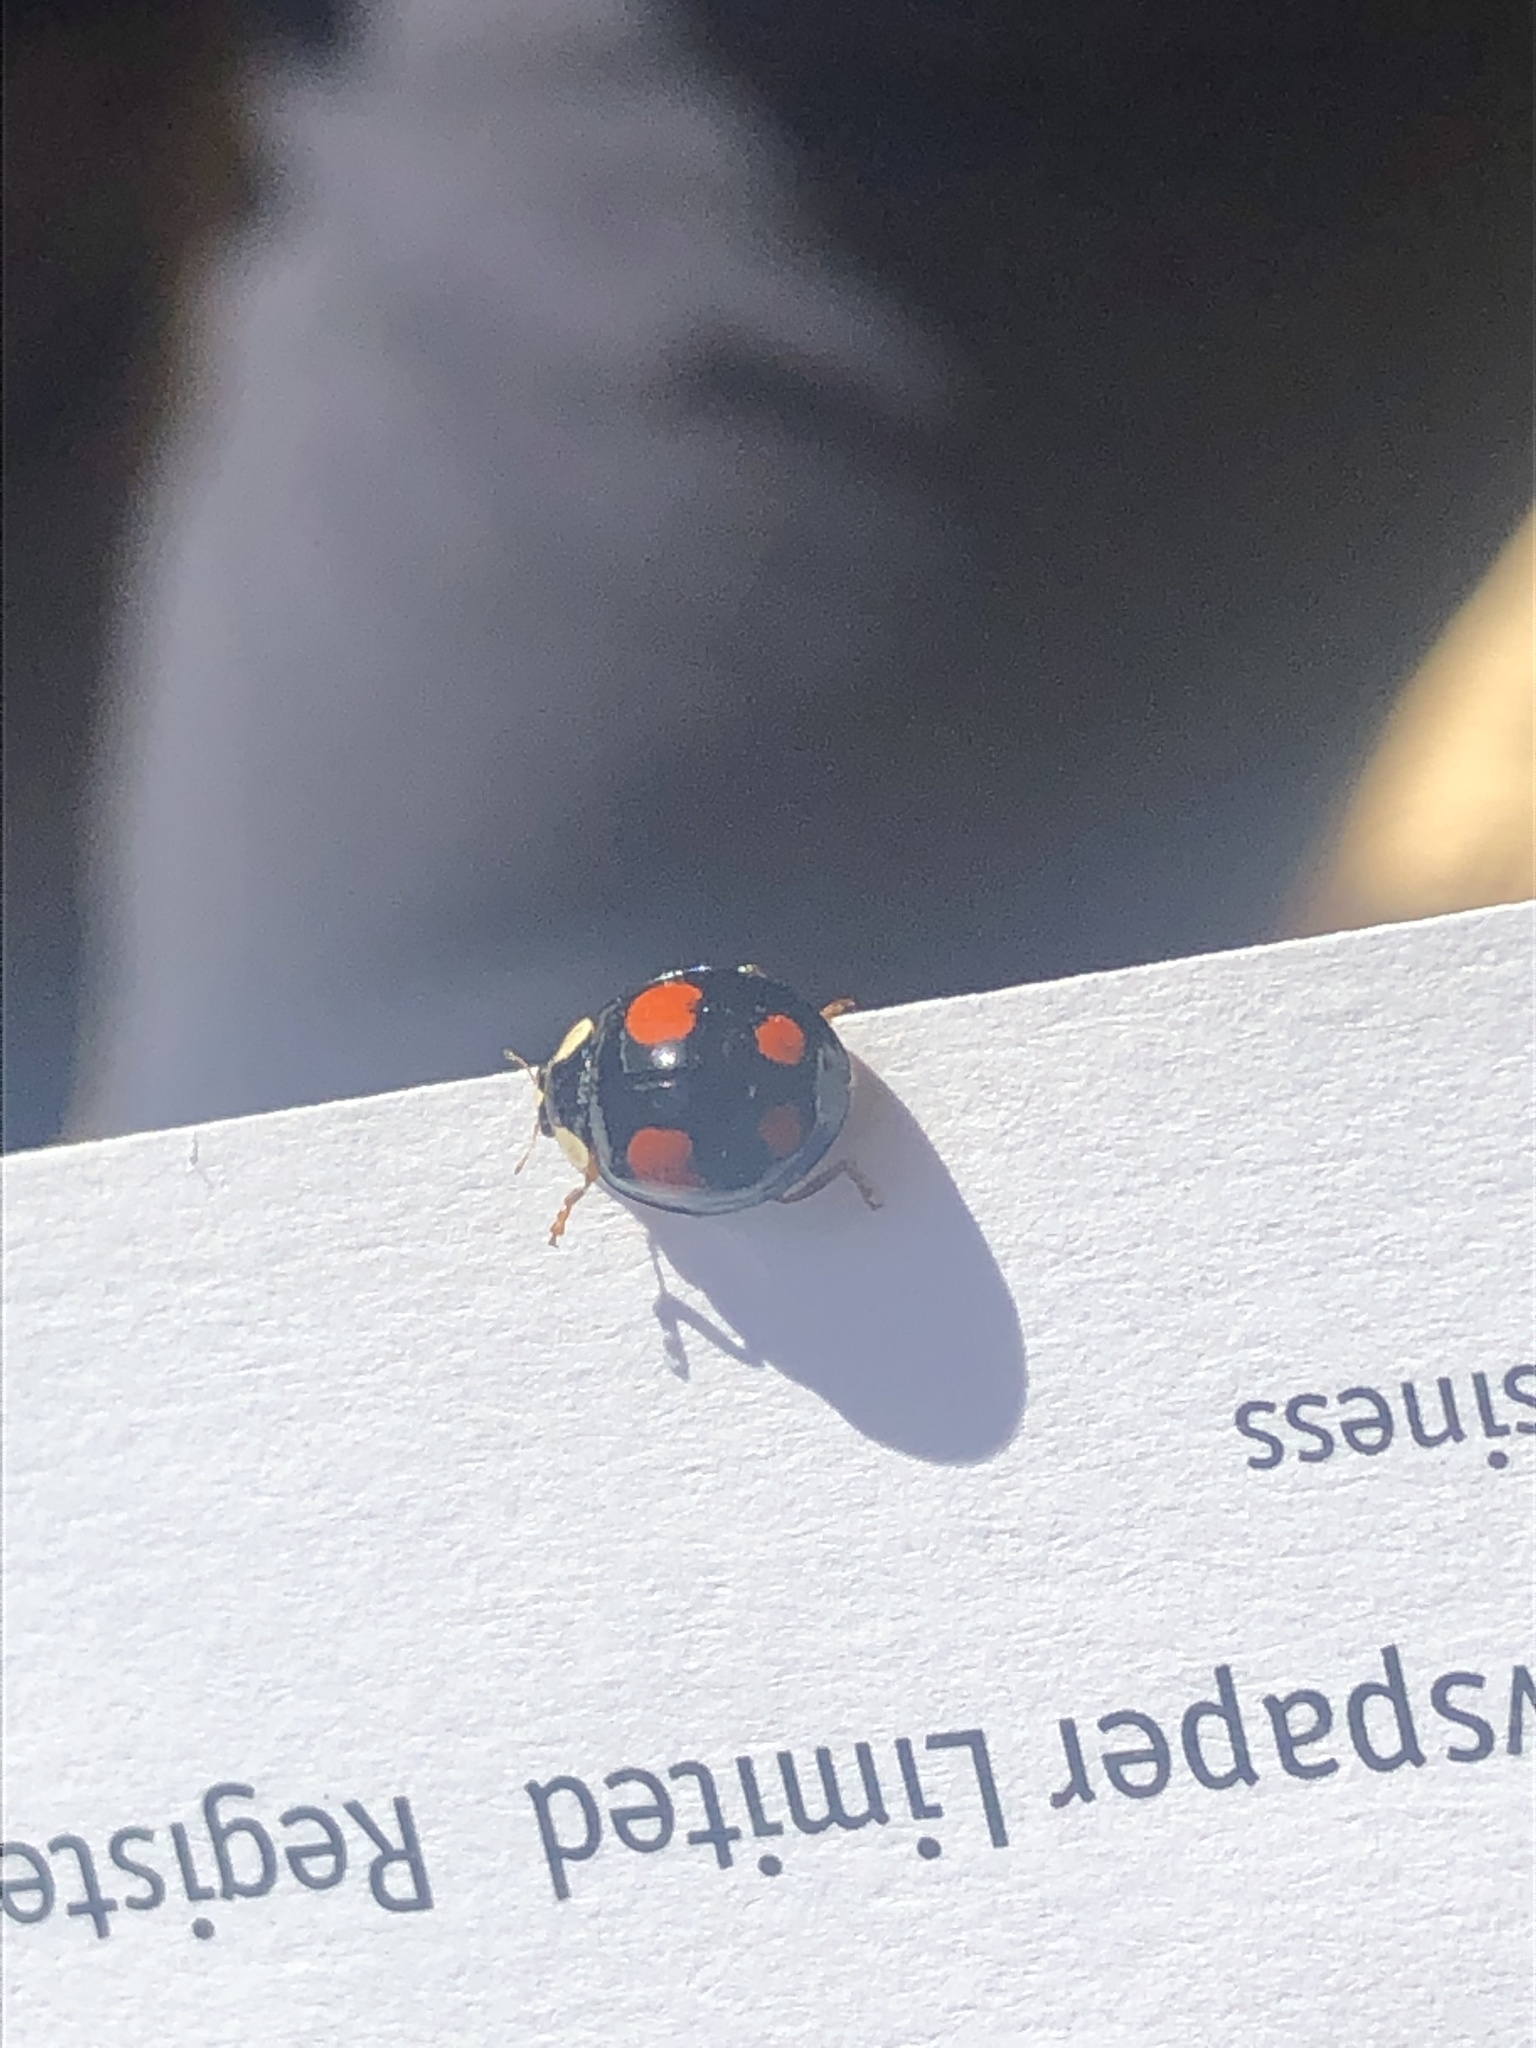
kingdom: Animalia
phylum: Arthropoda
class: Insecta
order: Coleoptera
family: Coccinellidae
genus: Harmonia
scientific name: Harmonia axyridis
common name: Harlequin ladybird
